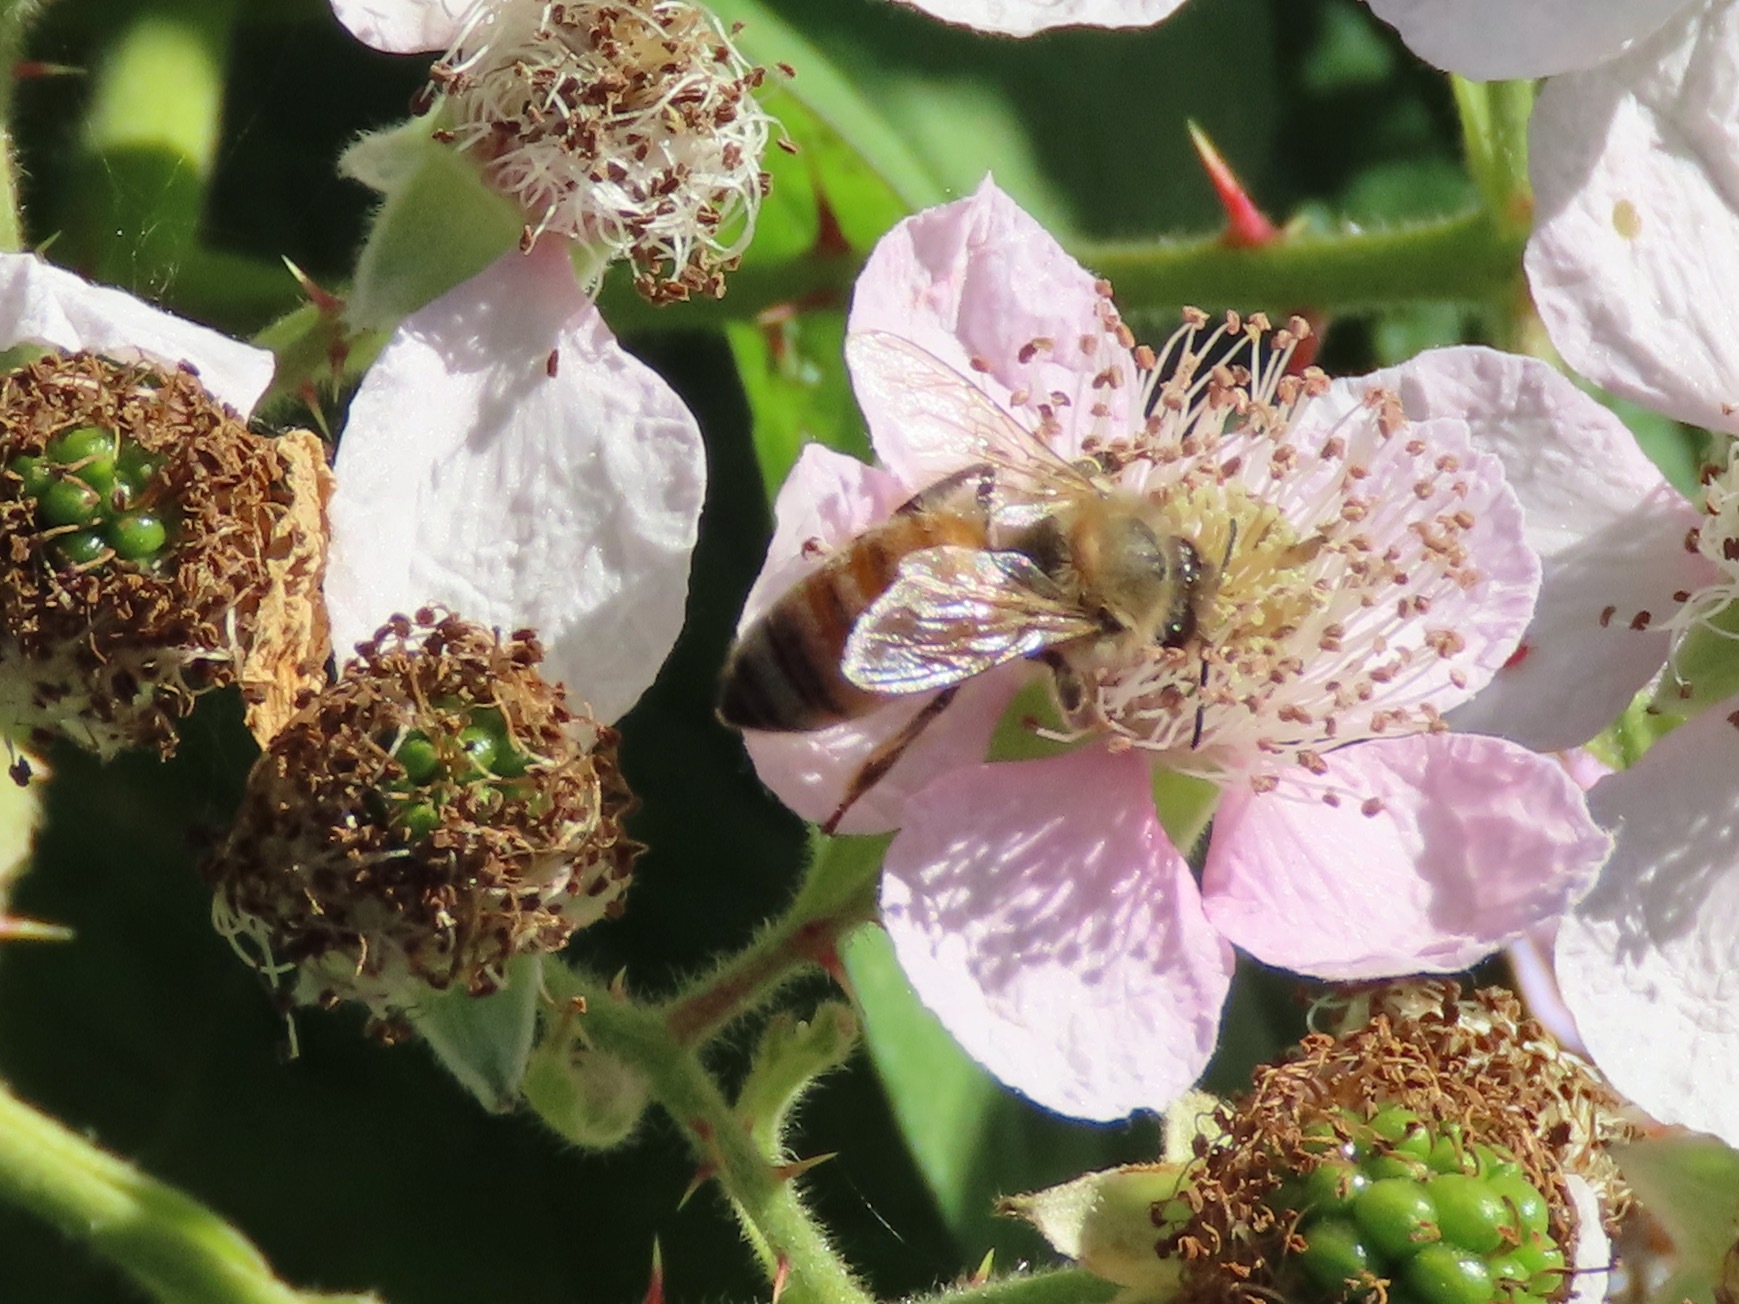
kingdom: Animalia
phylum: Arthropoda
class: Insecta
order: Hymenoptera
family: Apidae
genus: Apis
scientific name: Apis mellifera
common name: Honey bee
